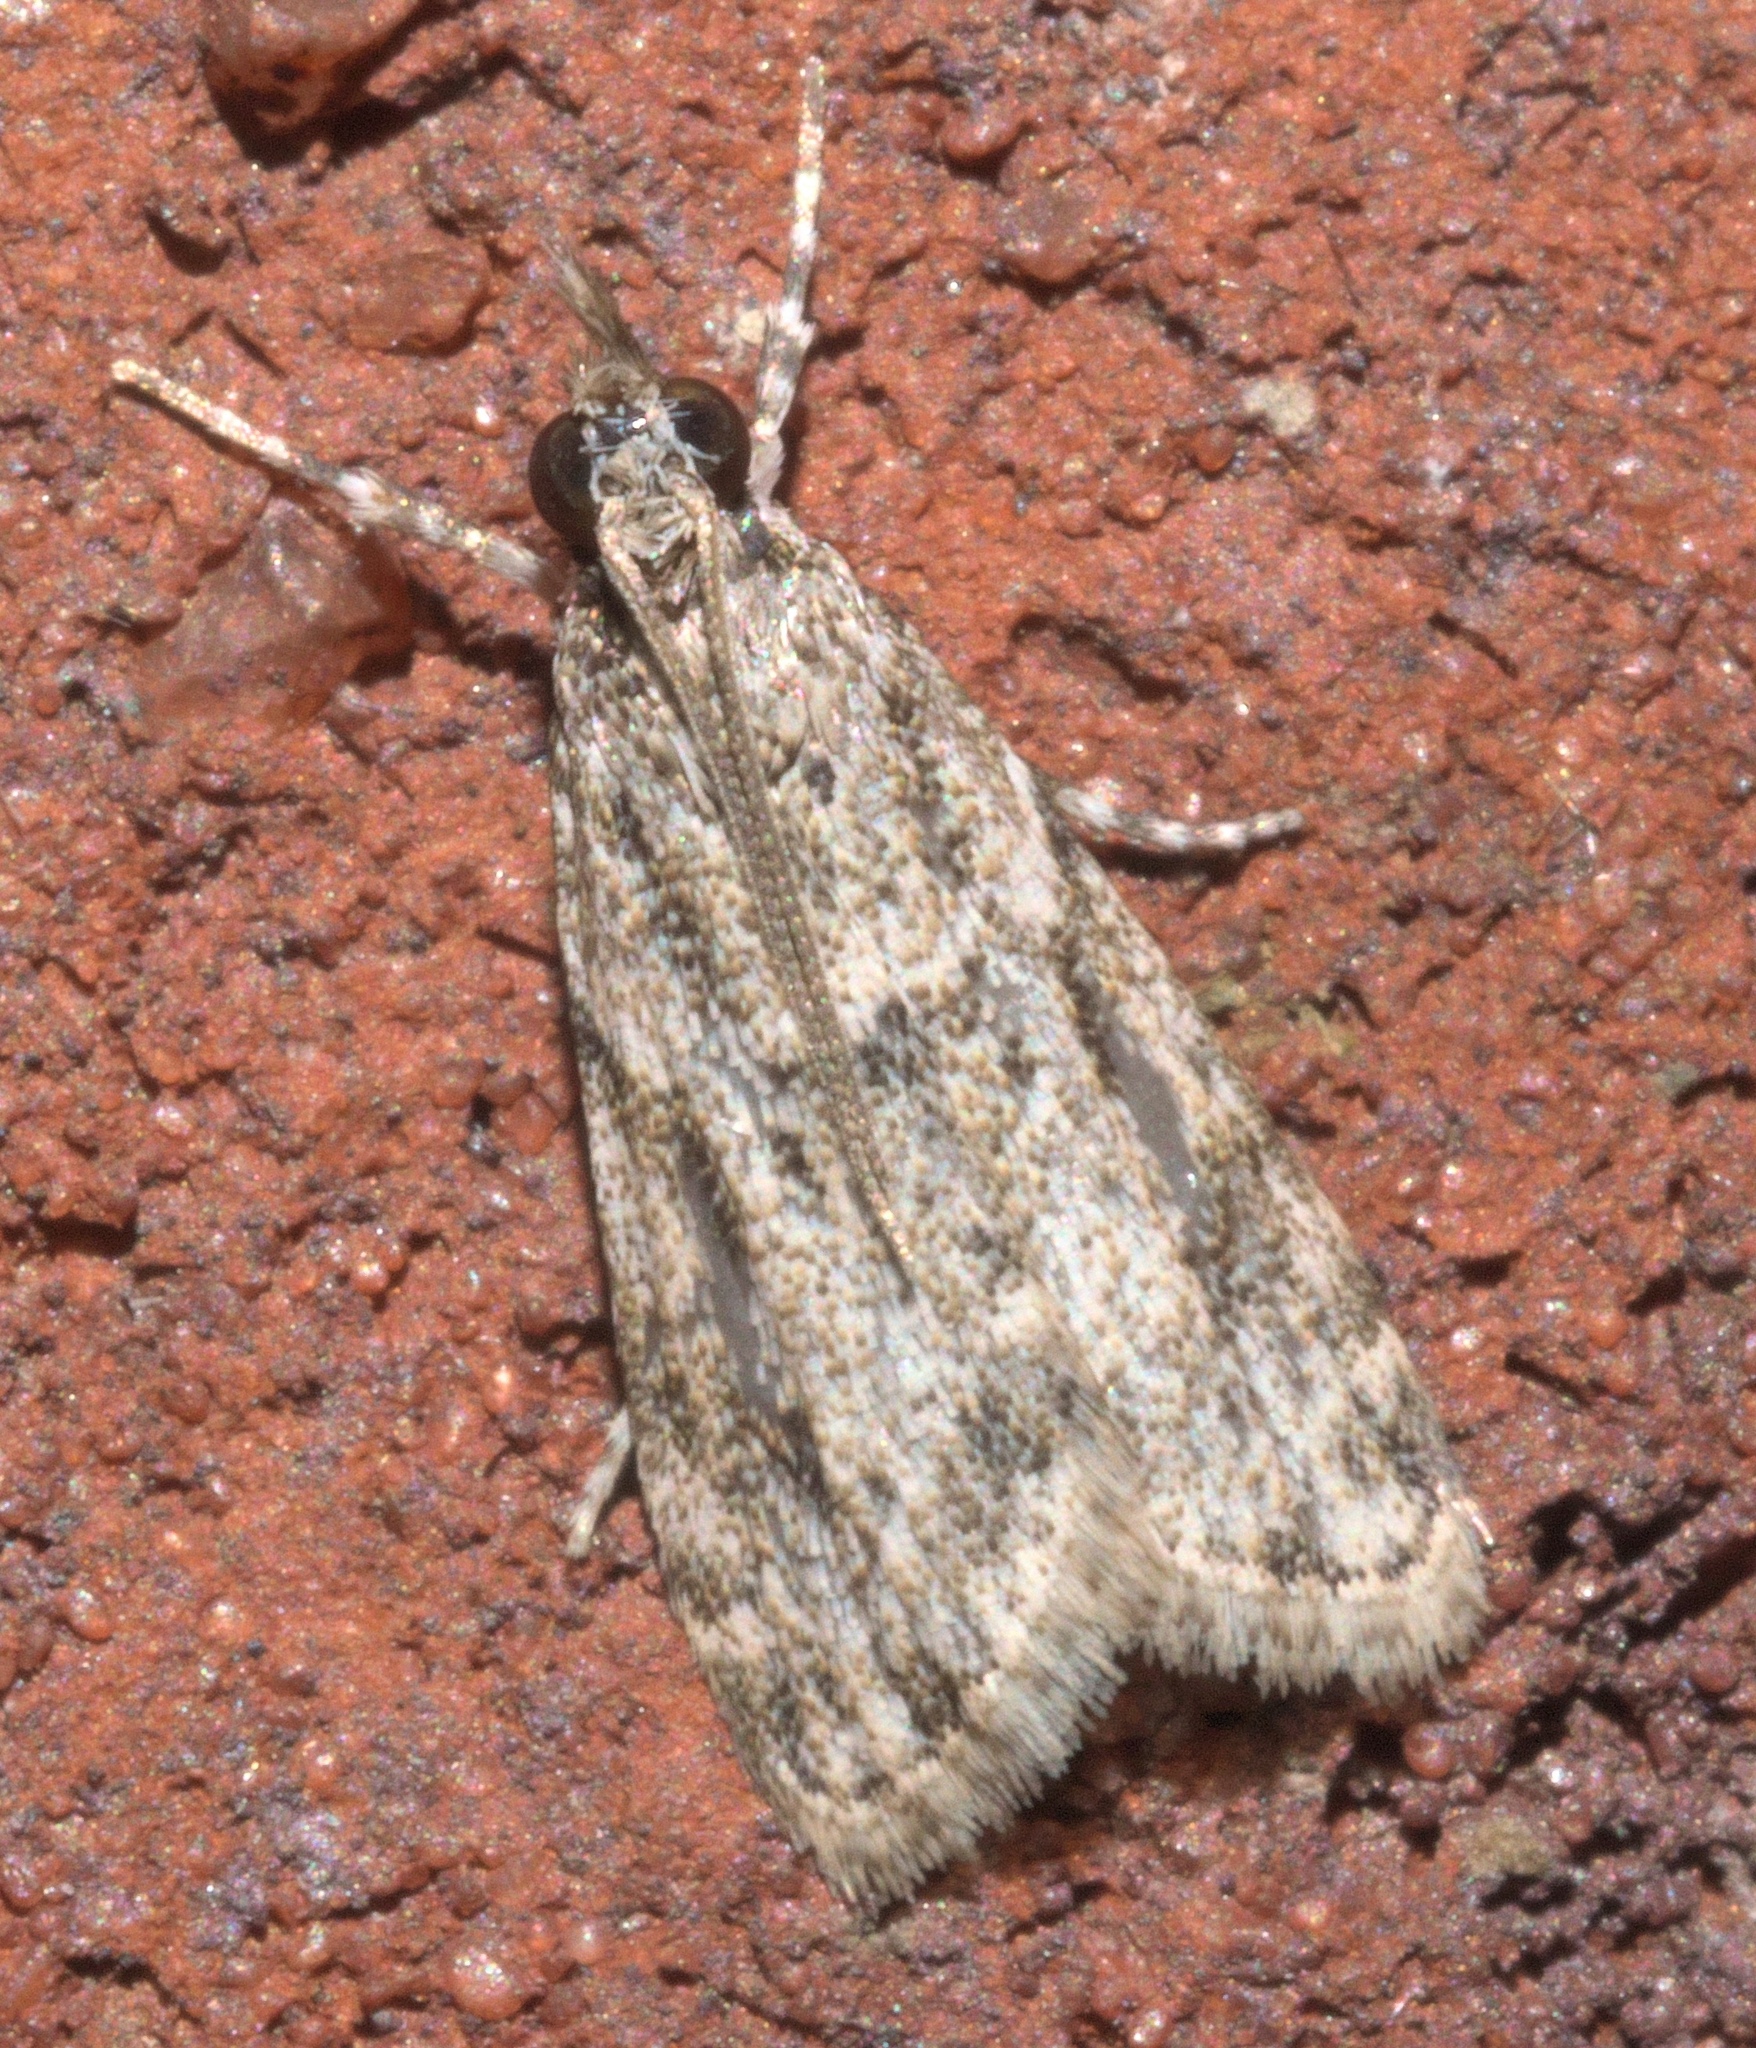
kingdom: Animalia
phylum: Arthropoda
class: Insecta
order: Lepidoptera
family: Crambidae
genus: Eudonia
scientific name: Eudonia heterosalis
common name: Mcdunnough's eudonia
